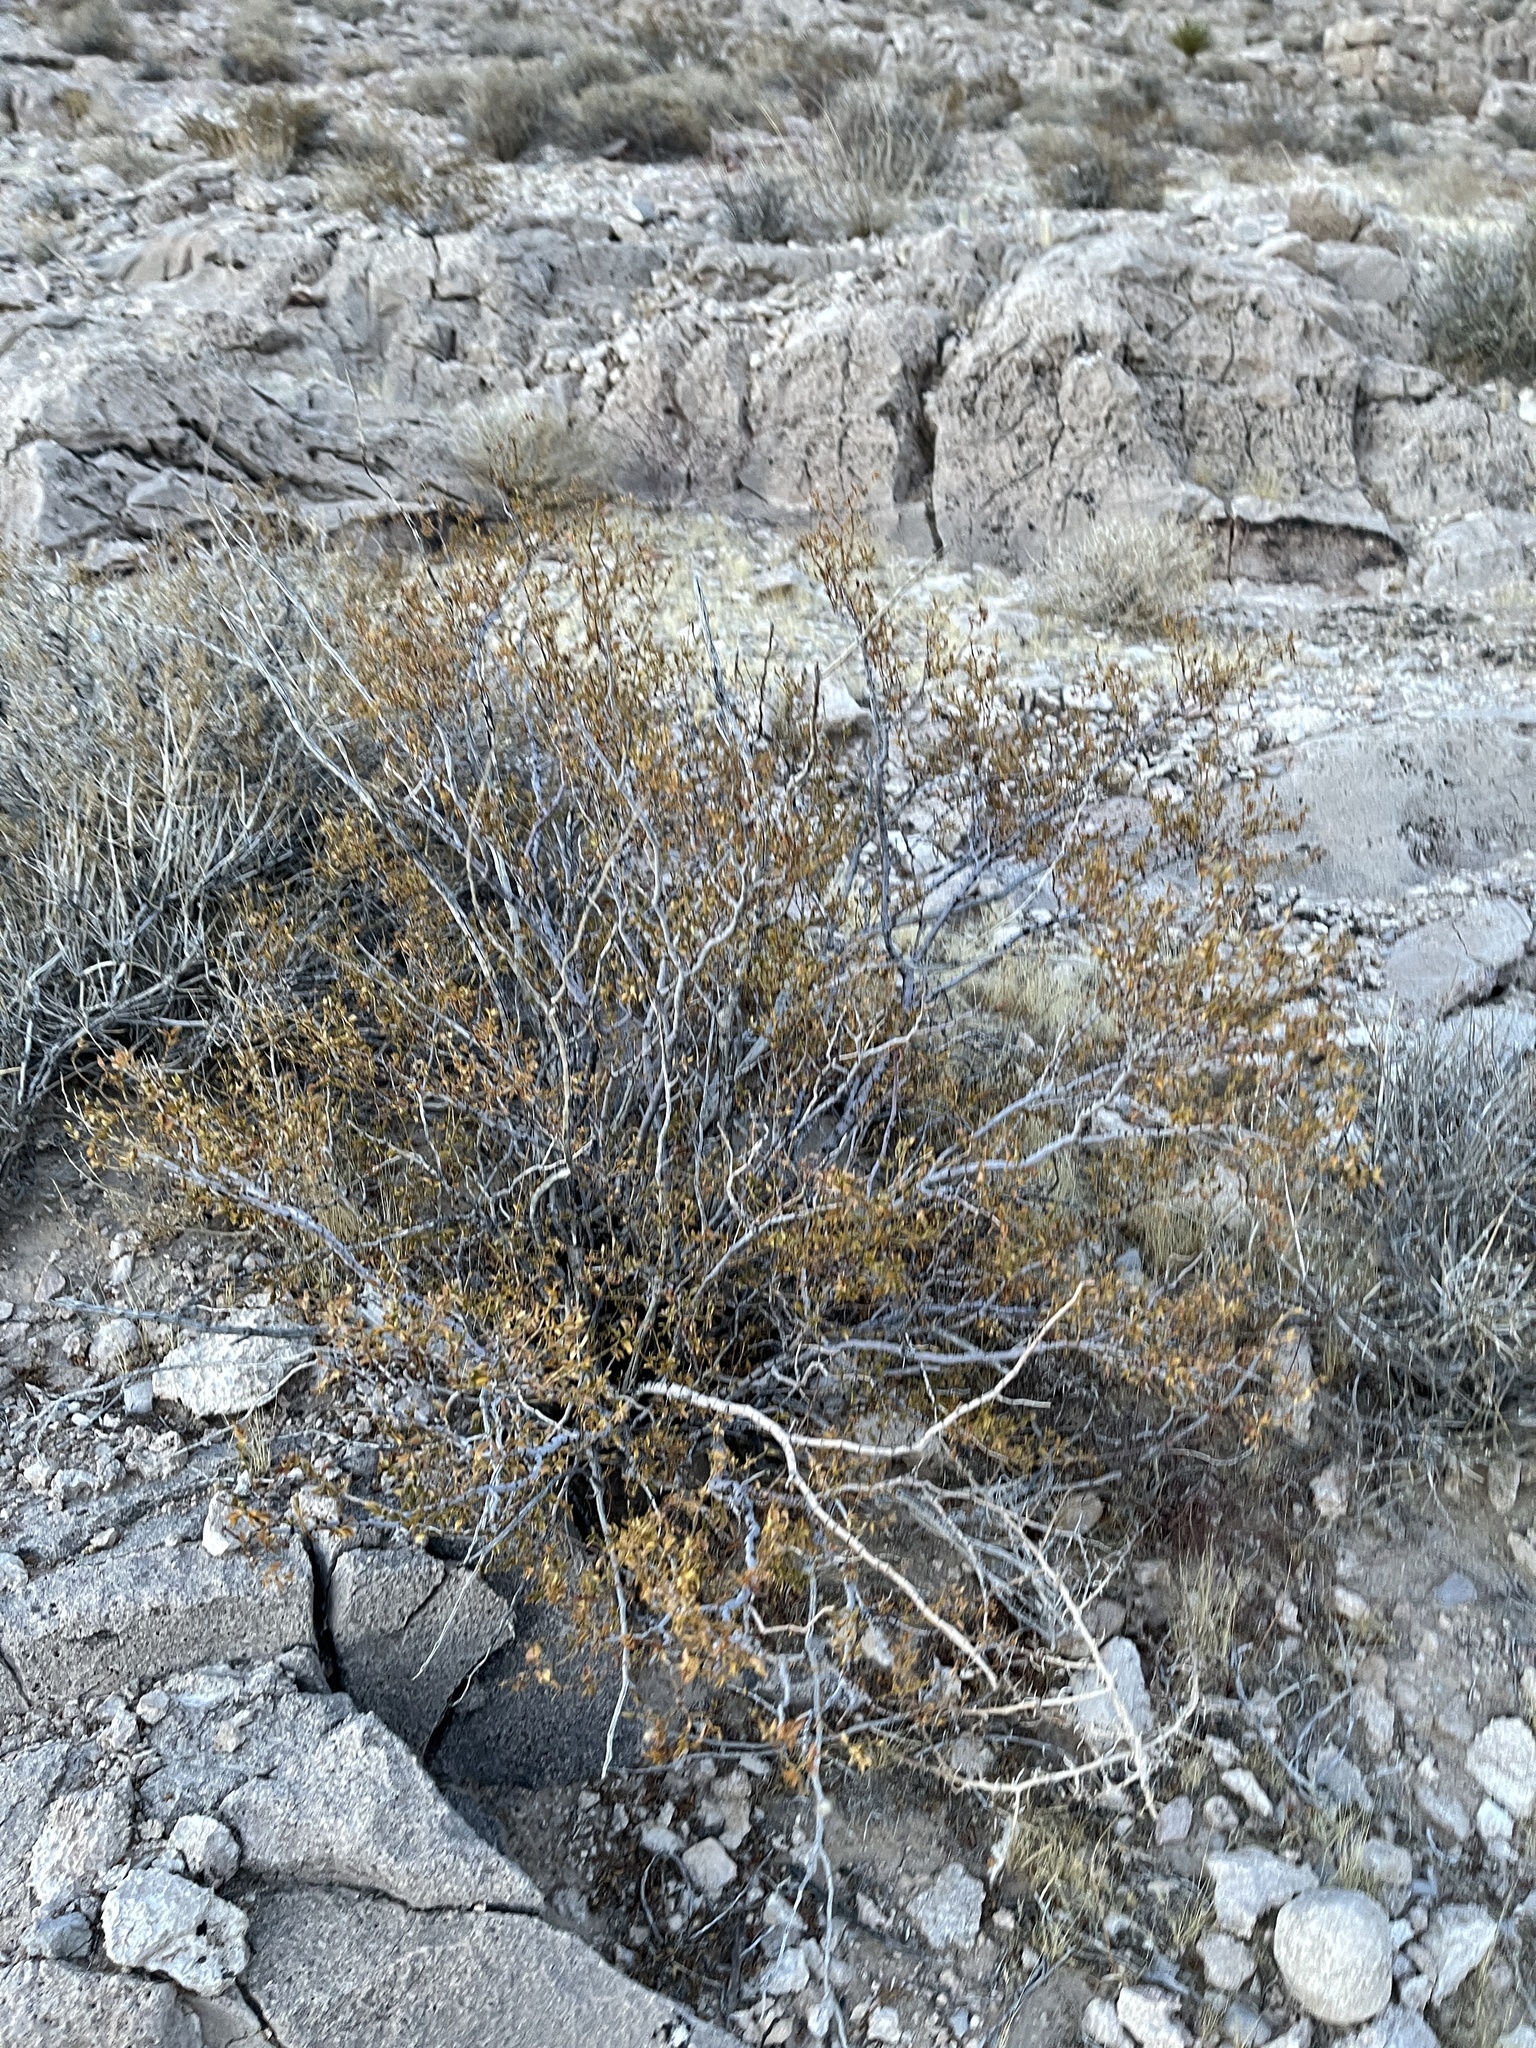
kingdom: Plantae
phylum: Tracheophyta
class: Magnoliopsida
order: Zygophyllales
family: Zygophyllaceae
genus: Larrea
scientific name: Larrea tridentata
